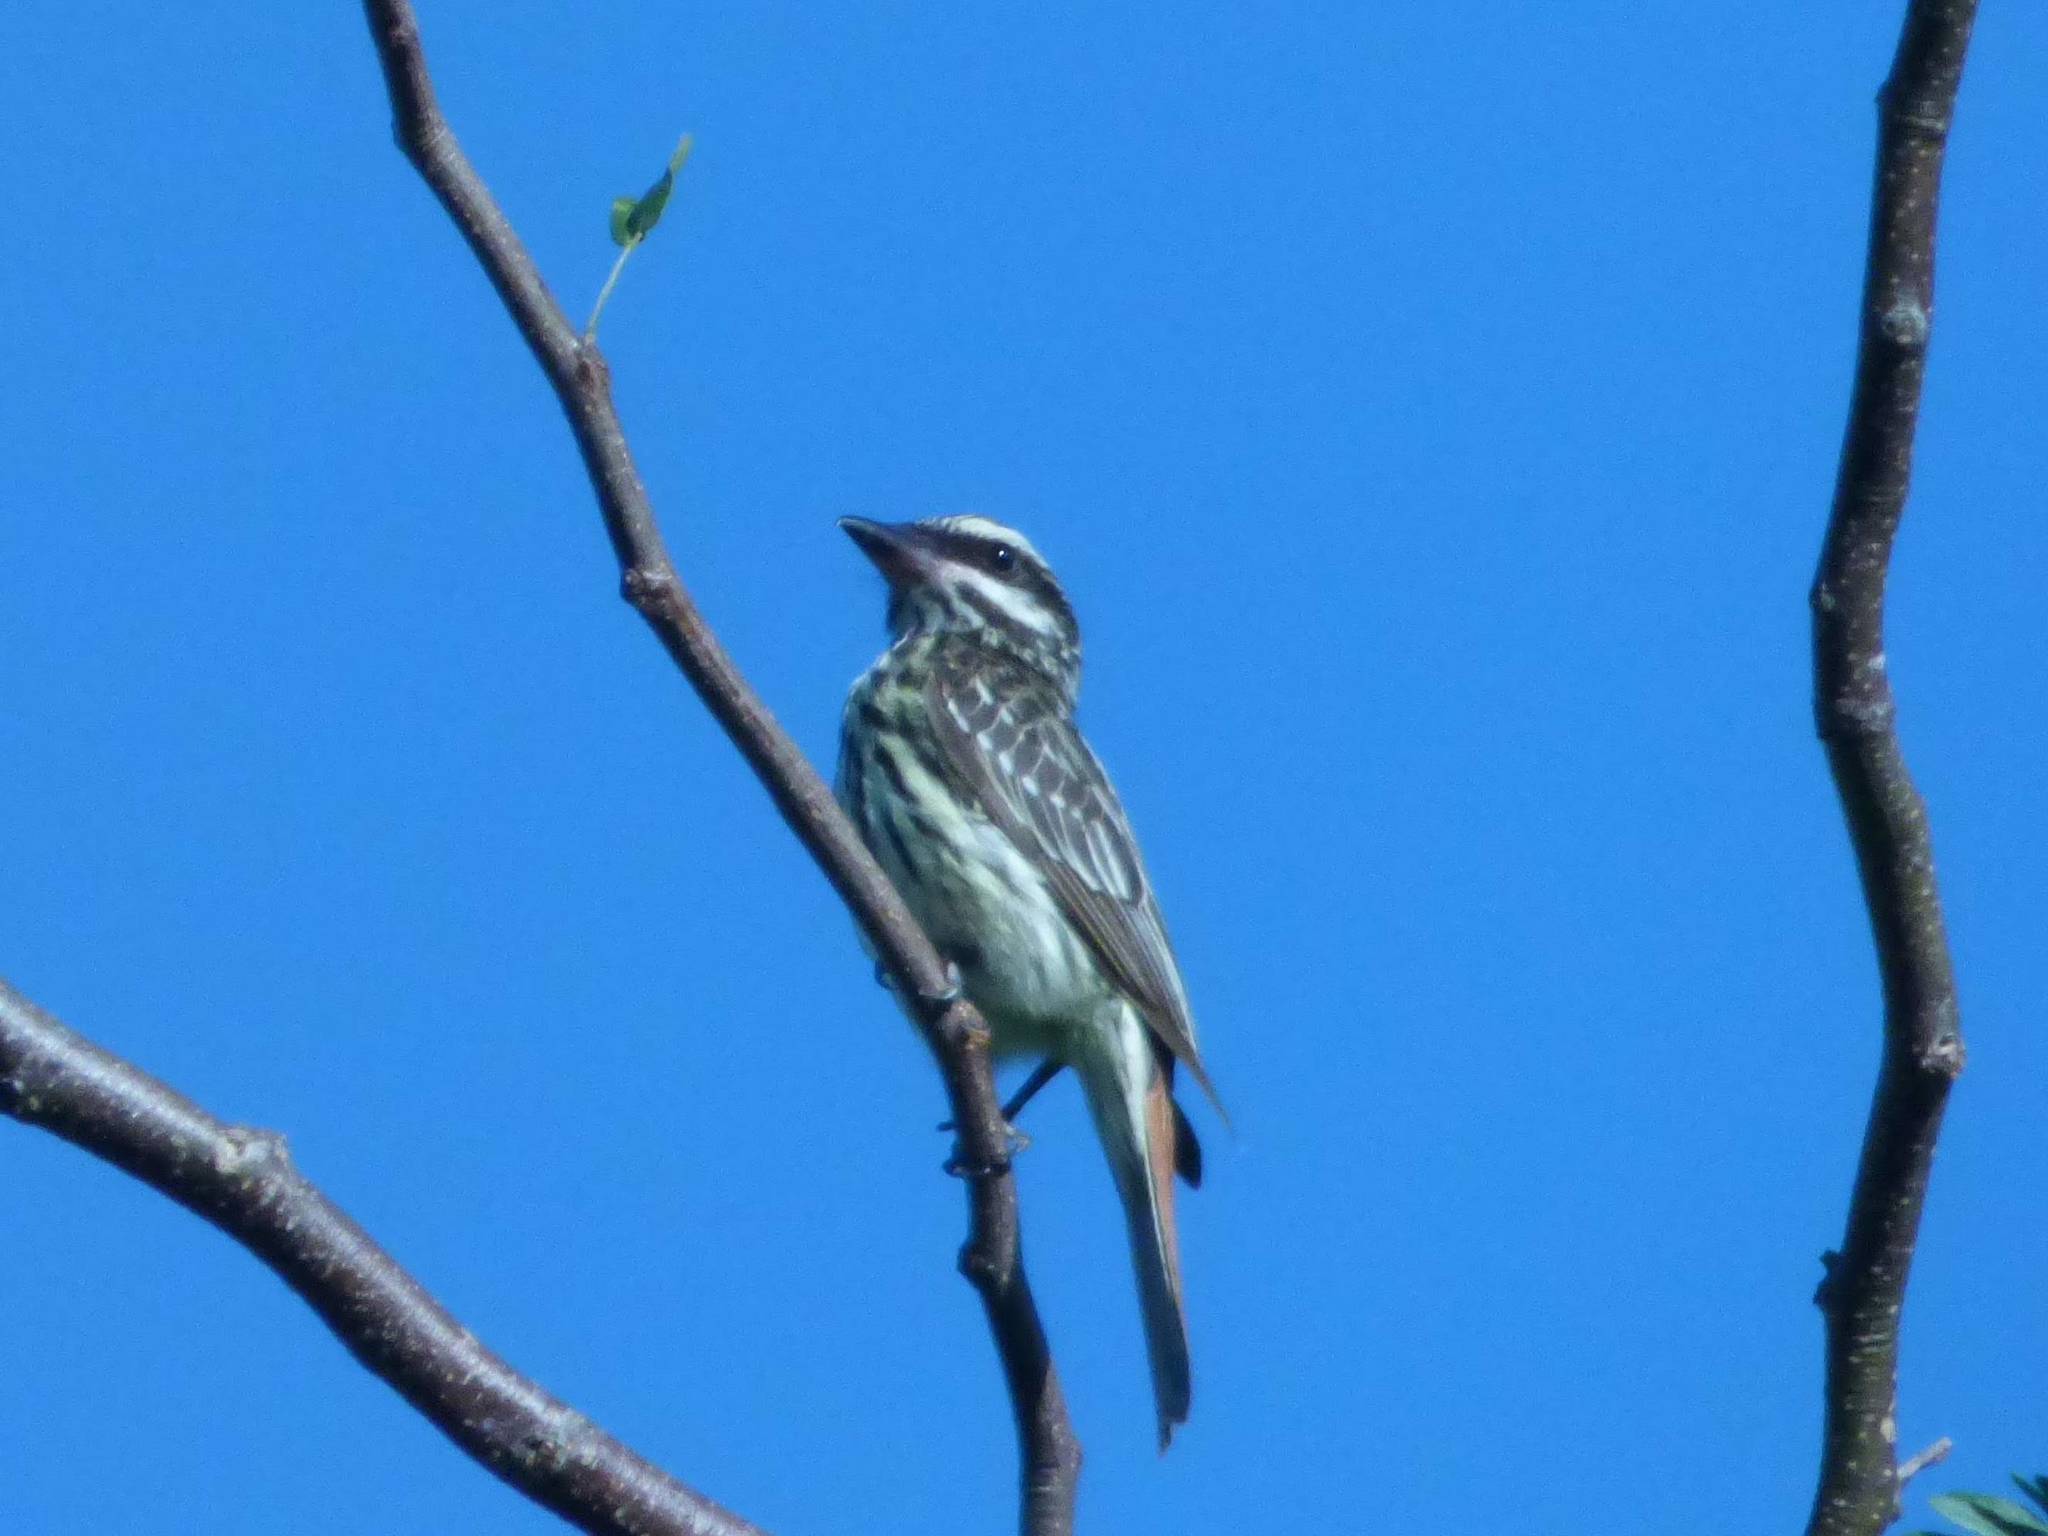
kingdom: Animalia
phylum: Chordata
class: Aves
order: Passeriformes
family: Tyrannidae
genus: Myiodynastes
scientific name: Myiodynastes maculatus
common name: Streaked flycatcher
